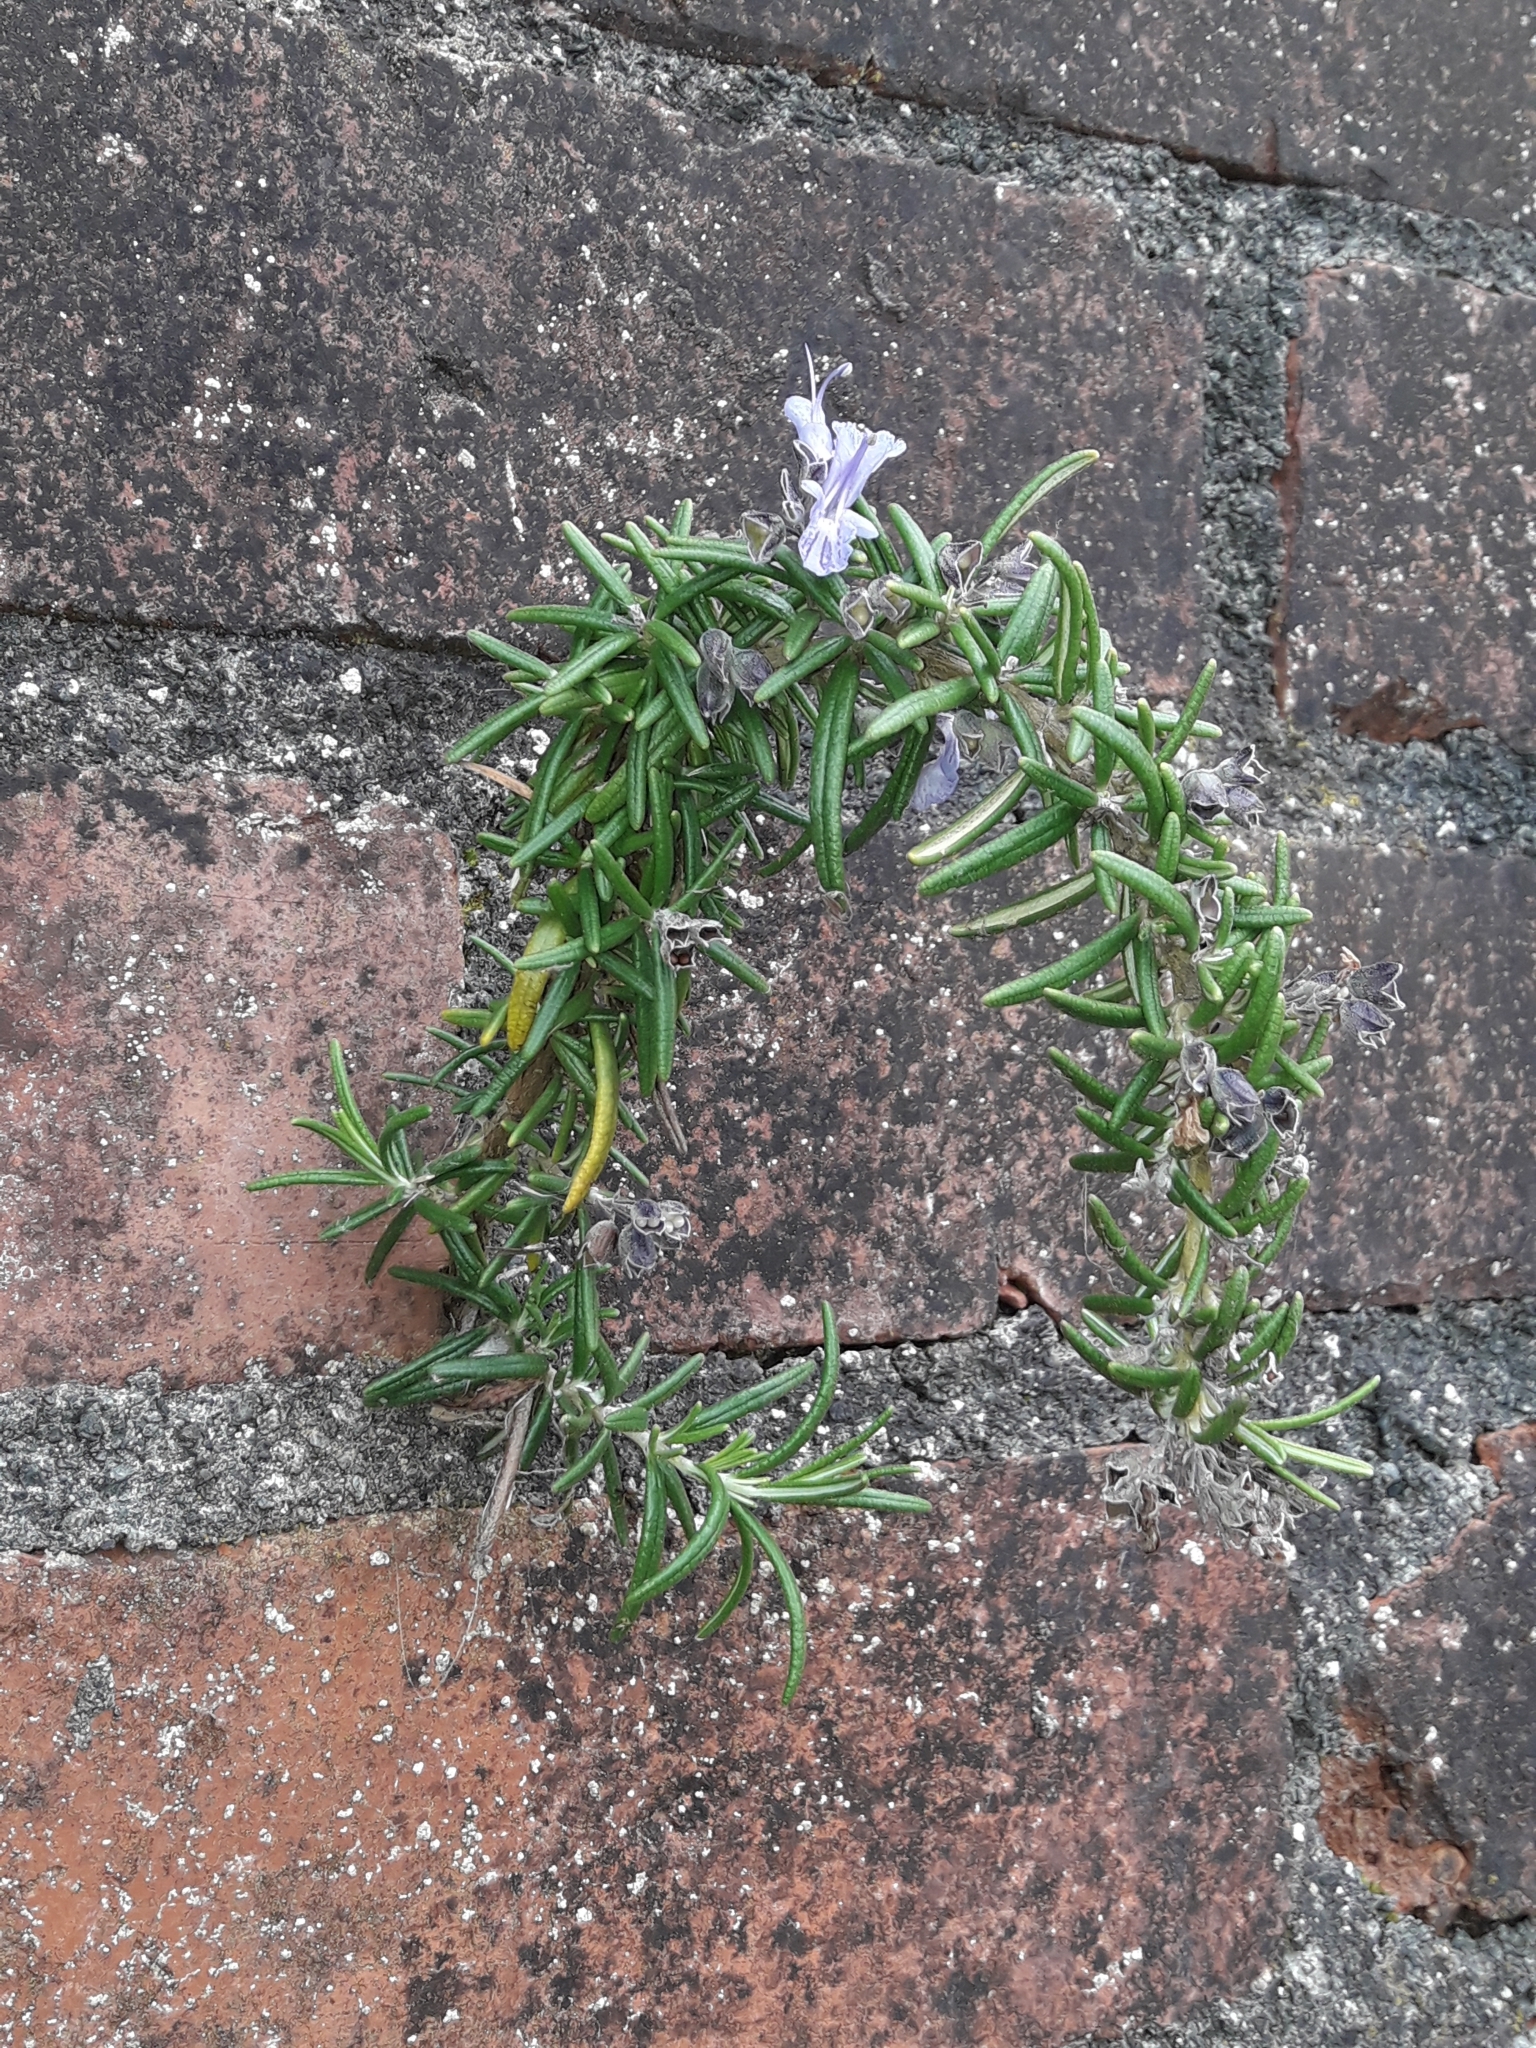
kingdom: Plantae
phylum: Tracheophyta
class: Magnoliopsida
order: Lamiales
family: Lamiaceae
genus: Salvia
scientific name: Salvia rosmarinus
